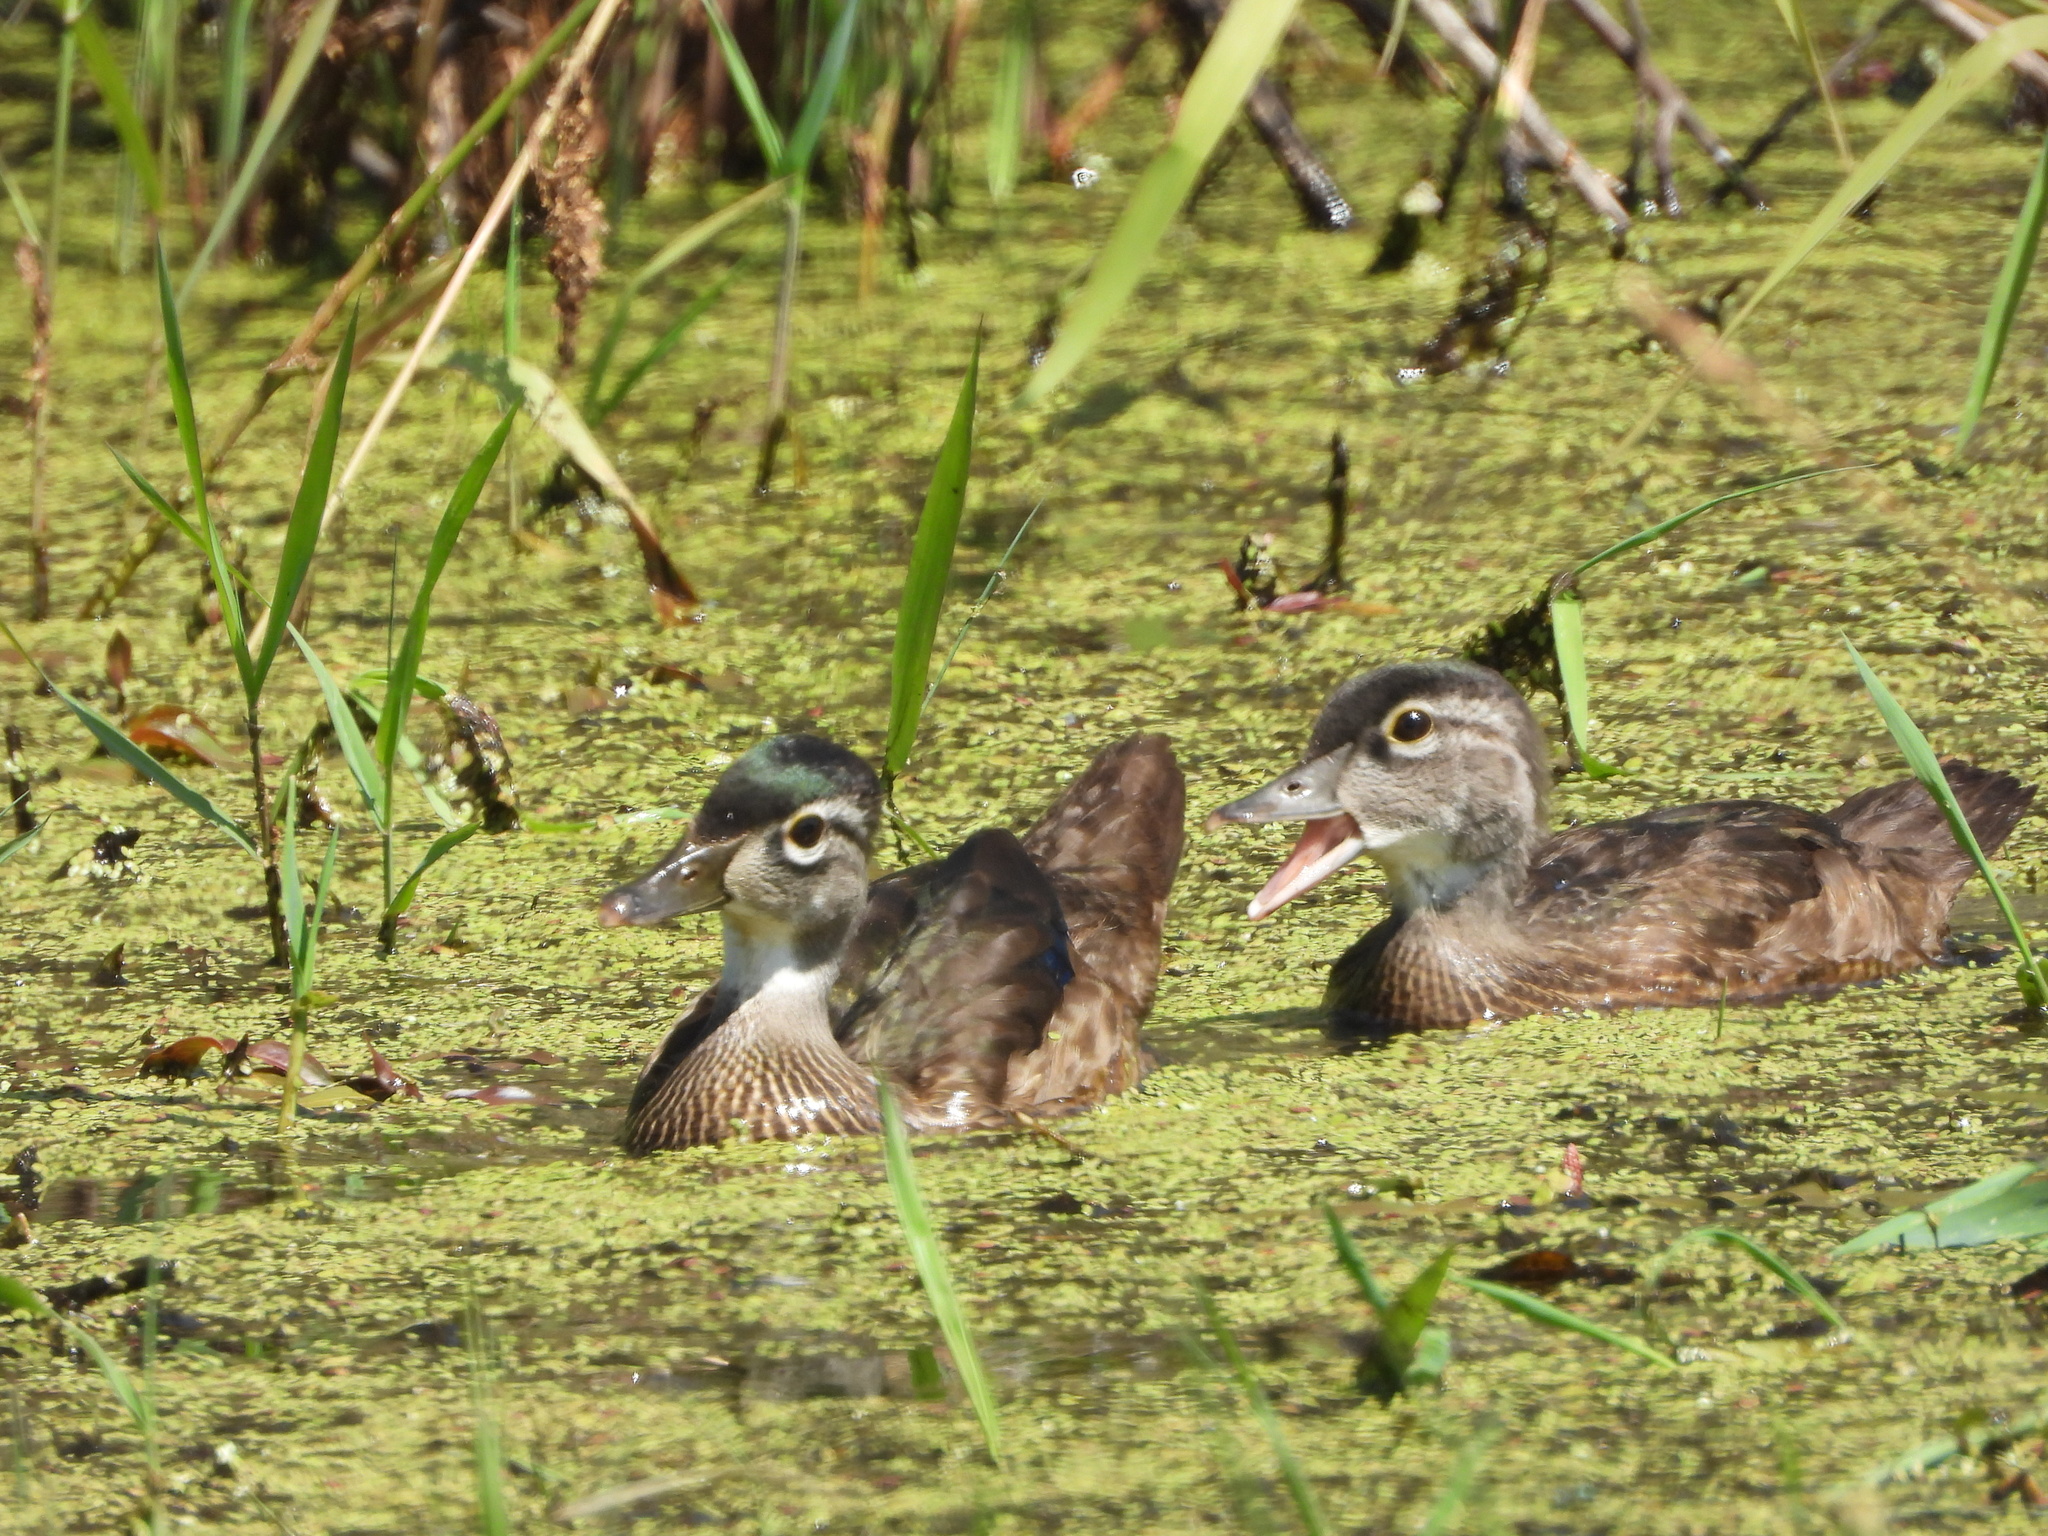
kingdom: Animalia
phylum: Chordata
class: Aves
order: Anseriformes
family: Anatidae
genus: Aix
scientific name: Aix sponsa
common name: Wood duck
